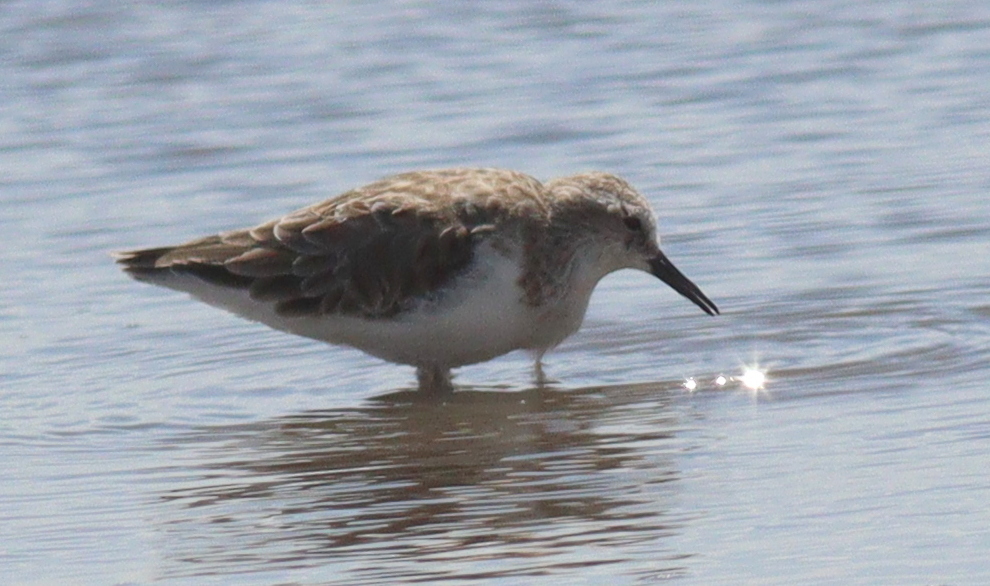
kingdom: Animalia
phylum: Chordata
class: Aves
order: Charadriiformes
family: Scolopacidae
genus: Calidris
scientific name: Calidris minuta
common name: Little stint
